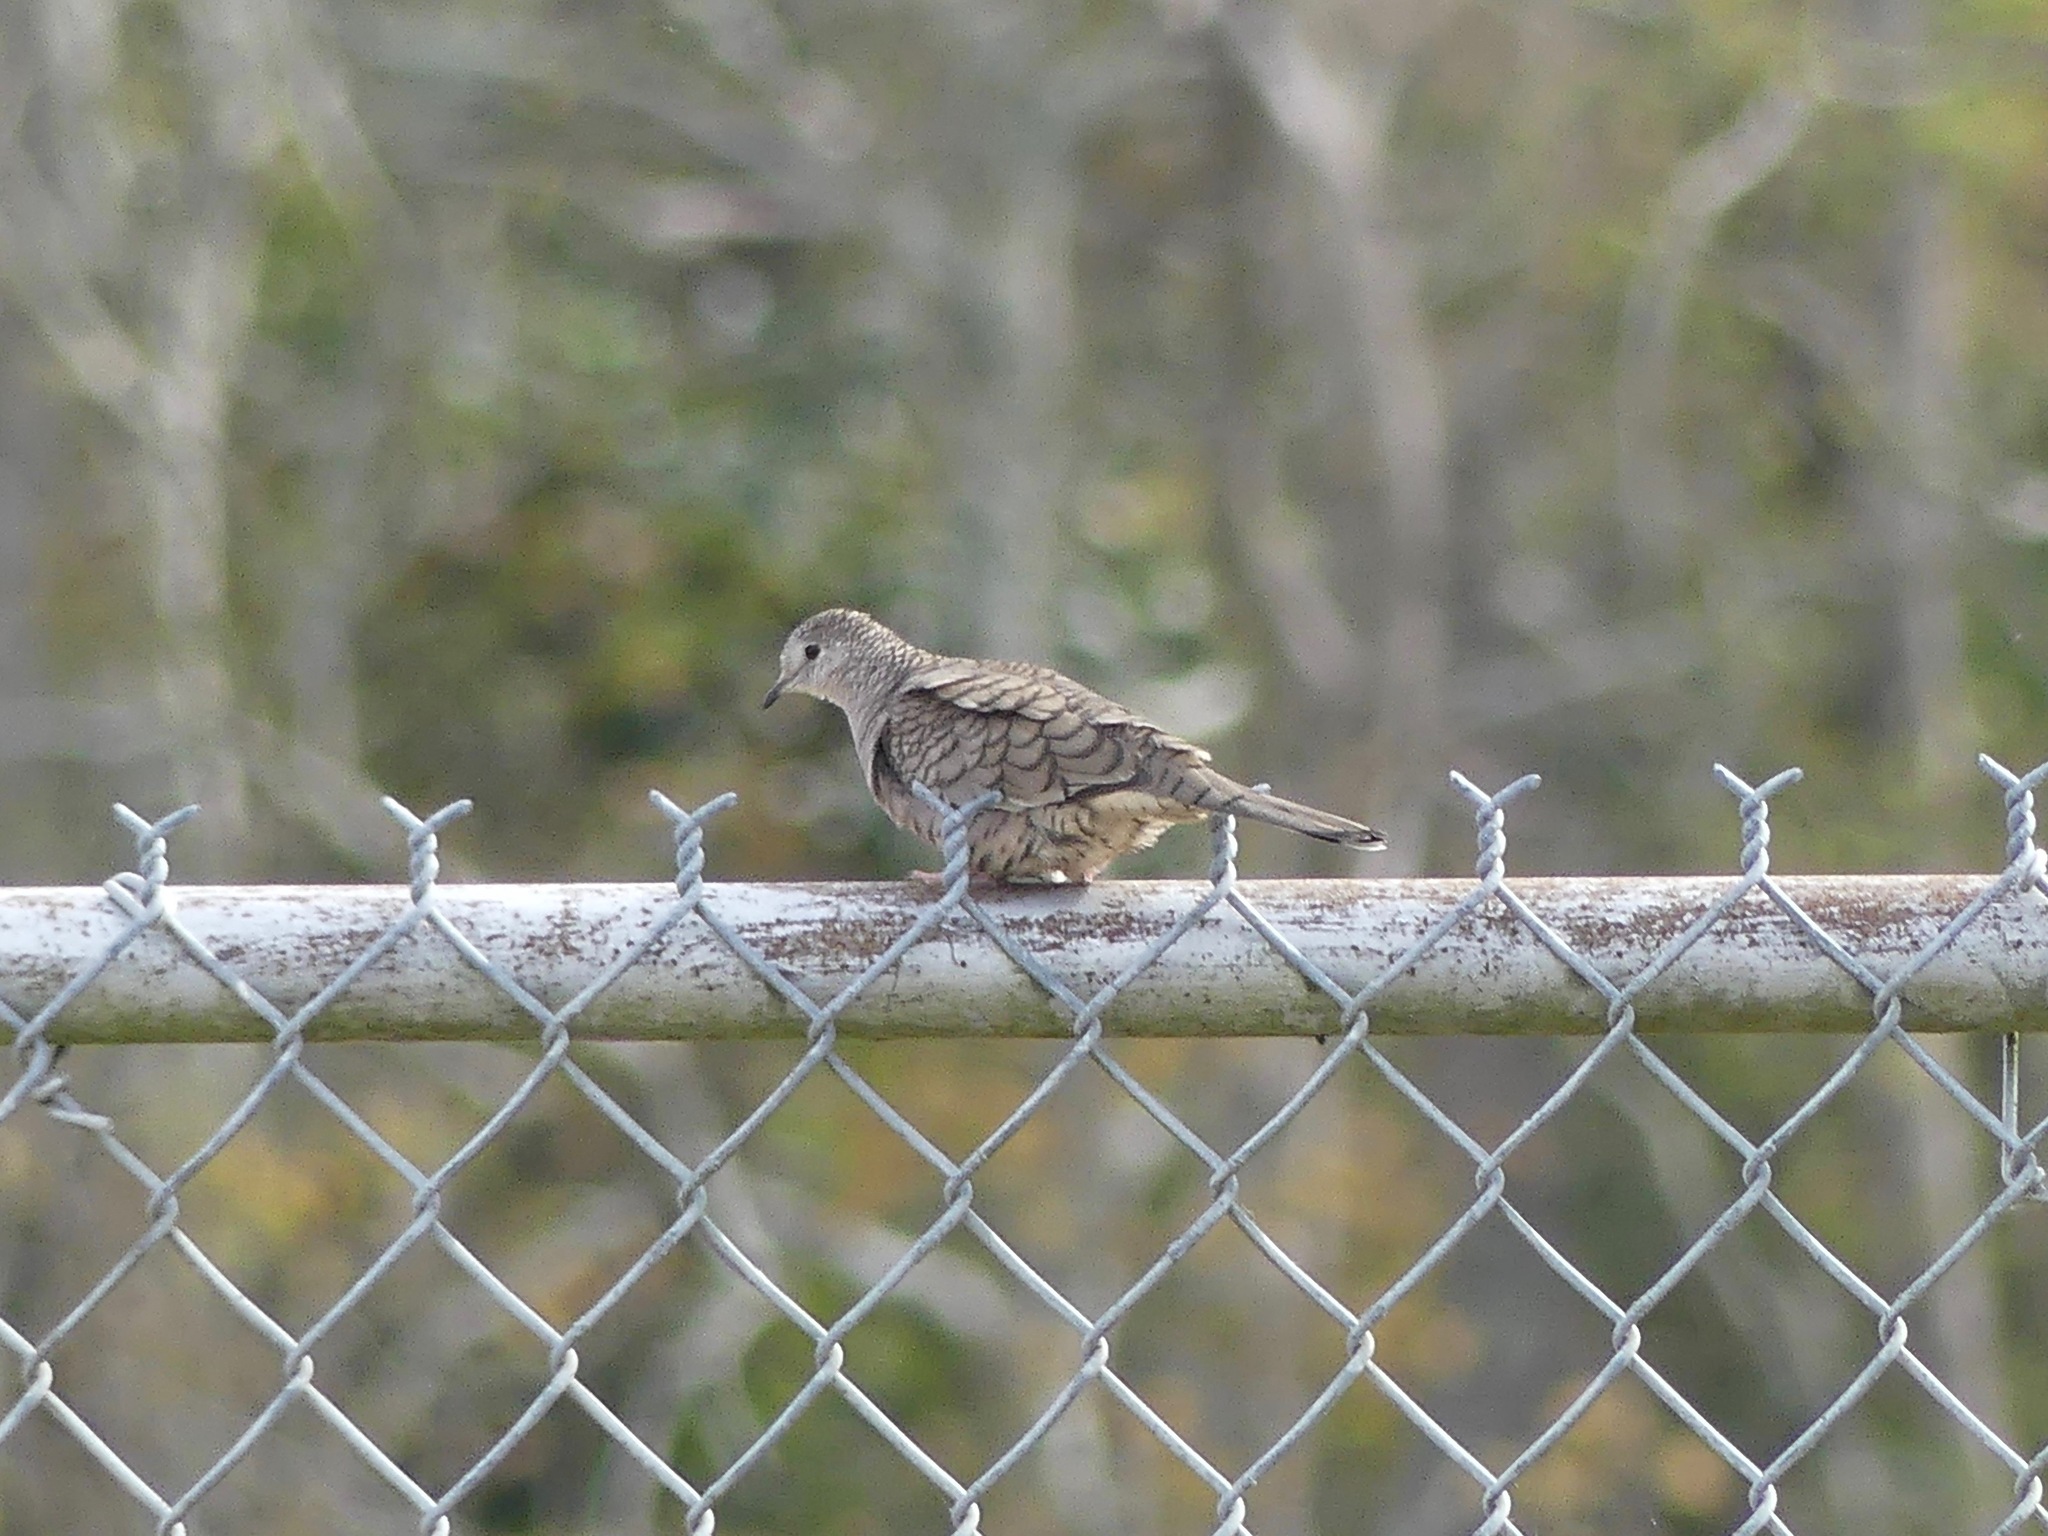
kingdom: Animalia
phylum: Chordata
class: Aves
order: Columbiformes
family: Columbidae
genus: Columbina
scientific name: Columbina inca
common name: Inca dove
